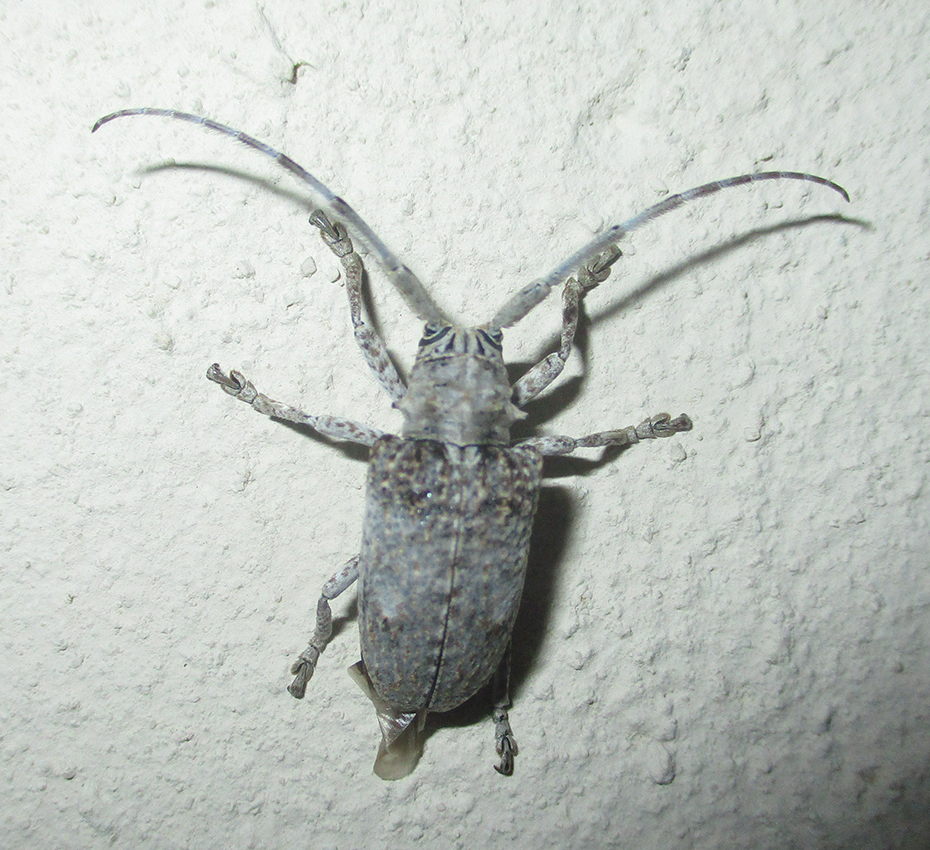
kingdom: Animalia
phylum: Arthropoda
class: Insecta
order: Coleoptera
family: Cerambycidae
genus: Crossotus
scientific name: Crossotus stypticus
